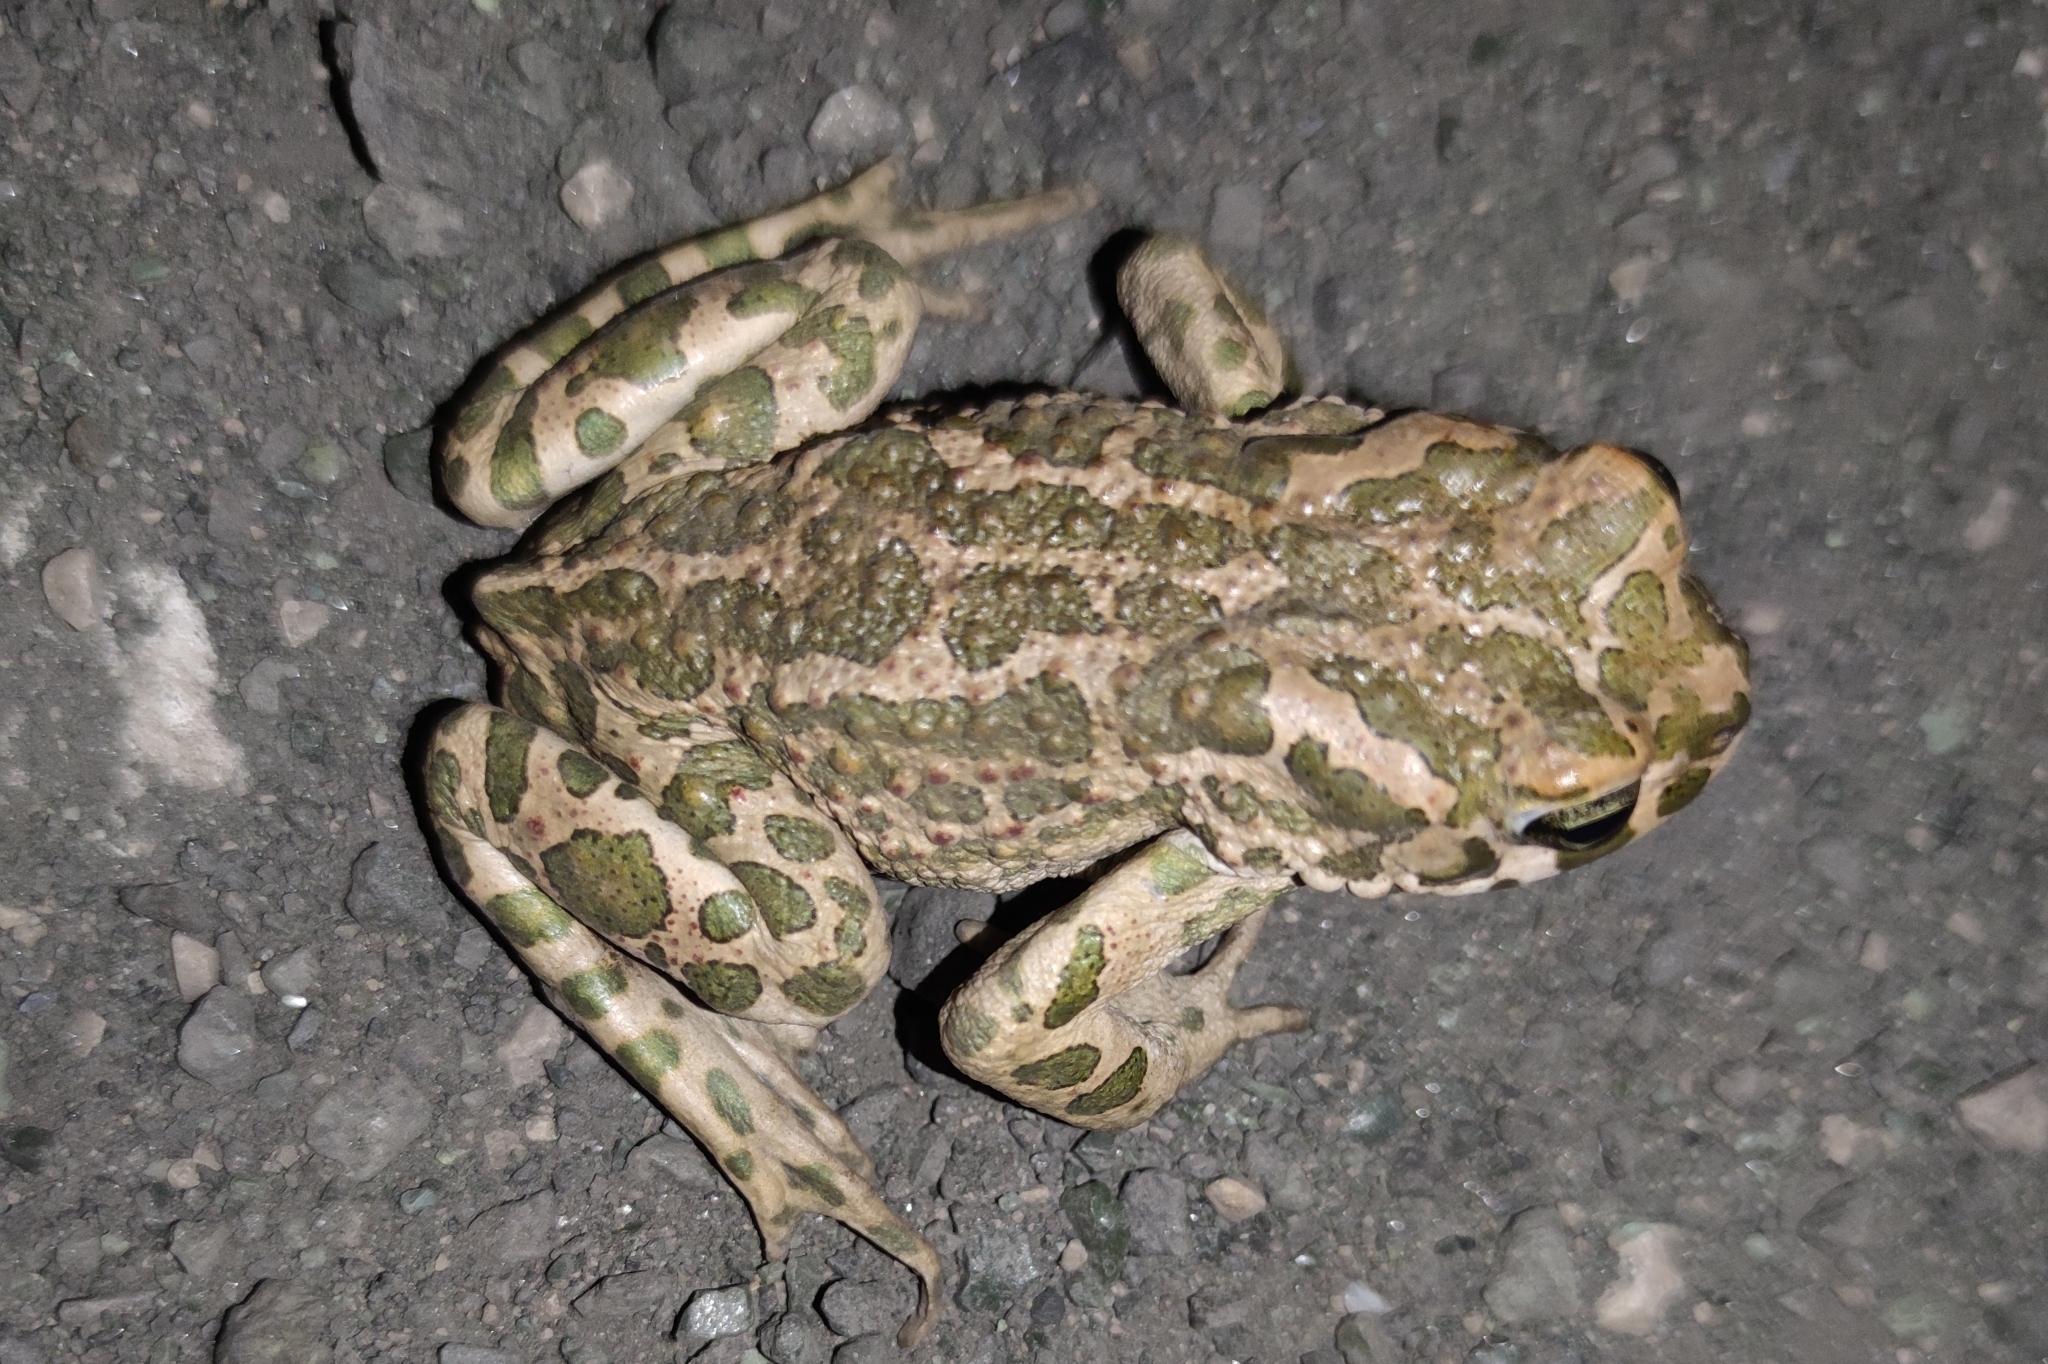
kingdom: Animalia
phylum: Chordata
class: Amphibia
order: Anura
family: Bufonidae
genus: Bufotes
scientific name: Bufotes viridis
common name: European green toad
